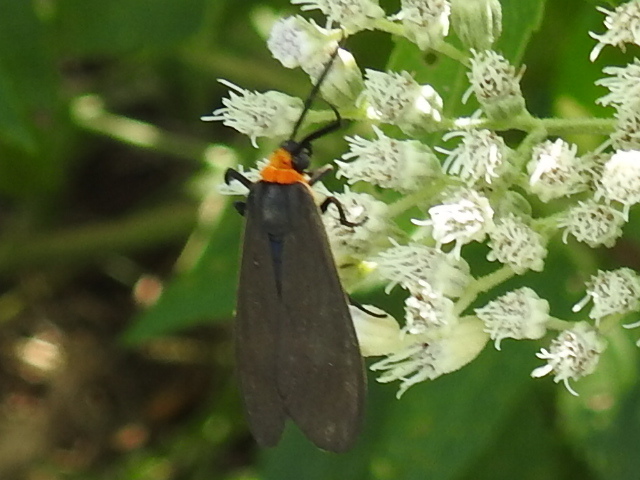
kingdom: Animalia
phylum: Arthropoda
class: Insecta
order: Lepidoptera
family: Erebidae
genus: Cisseps
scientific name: Cisseps fulvicollis
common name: Yellow-collared scape moth
